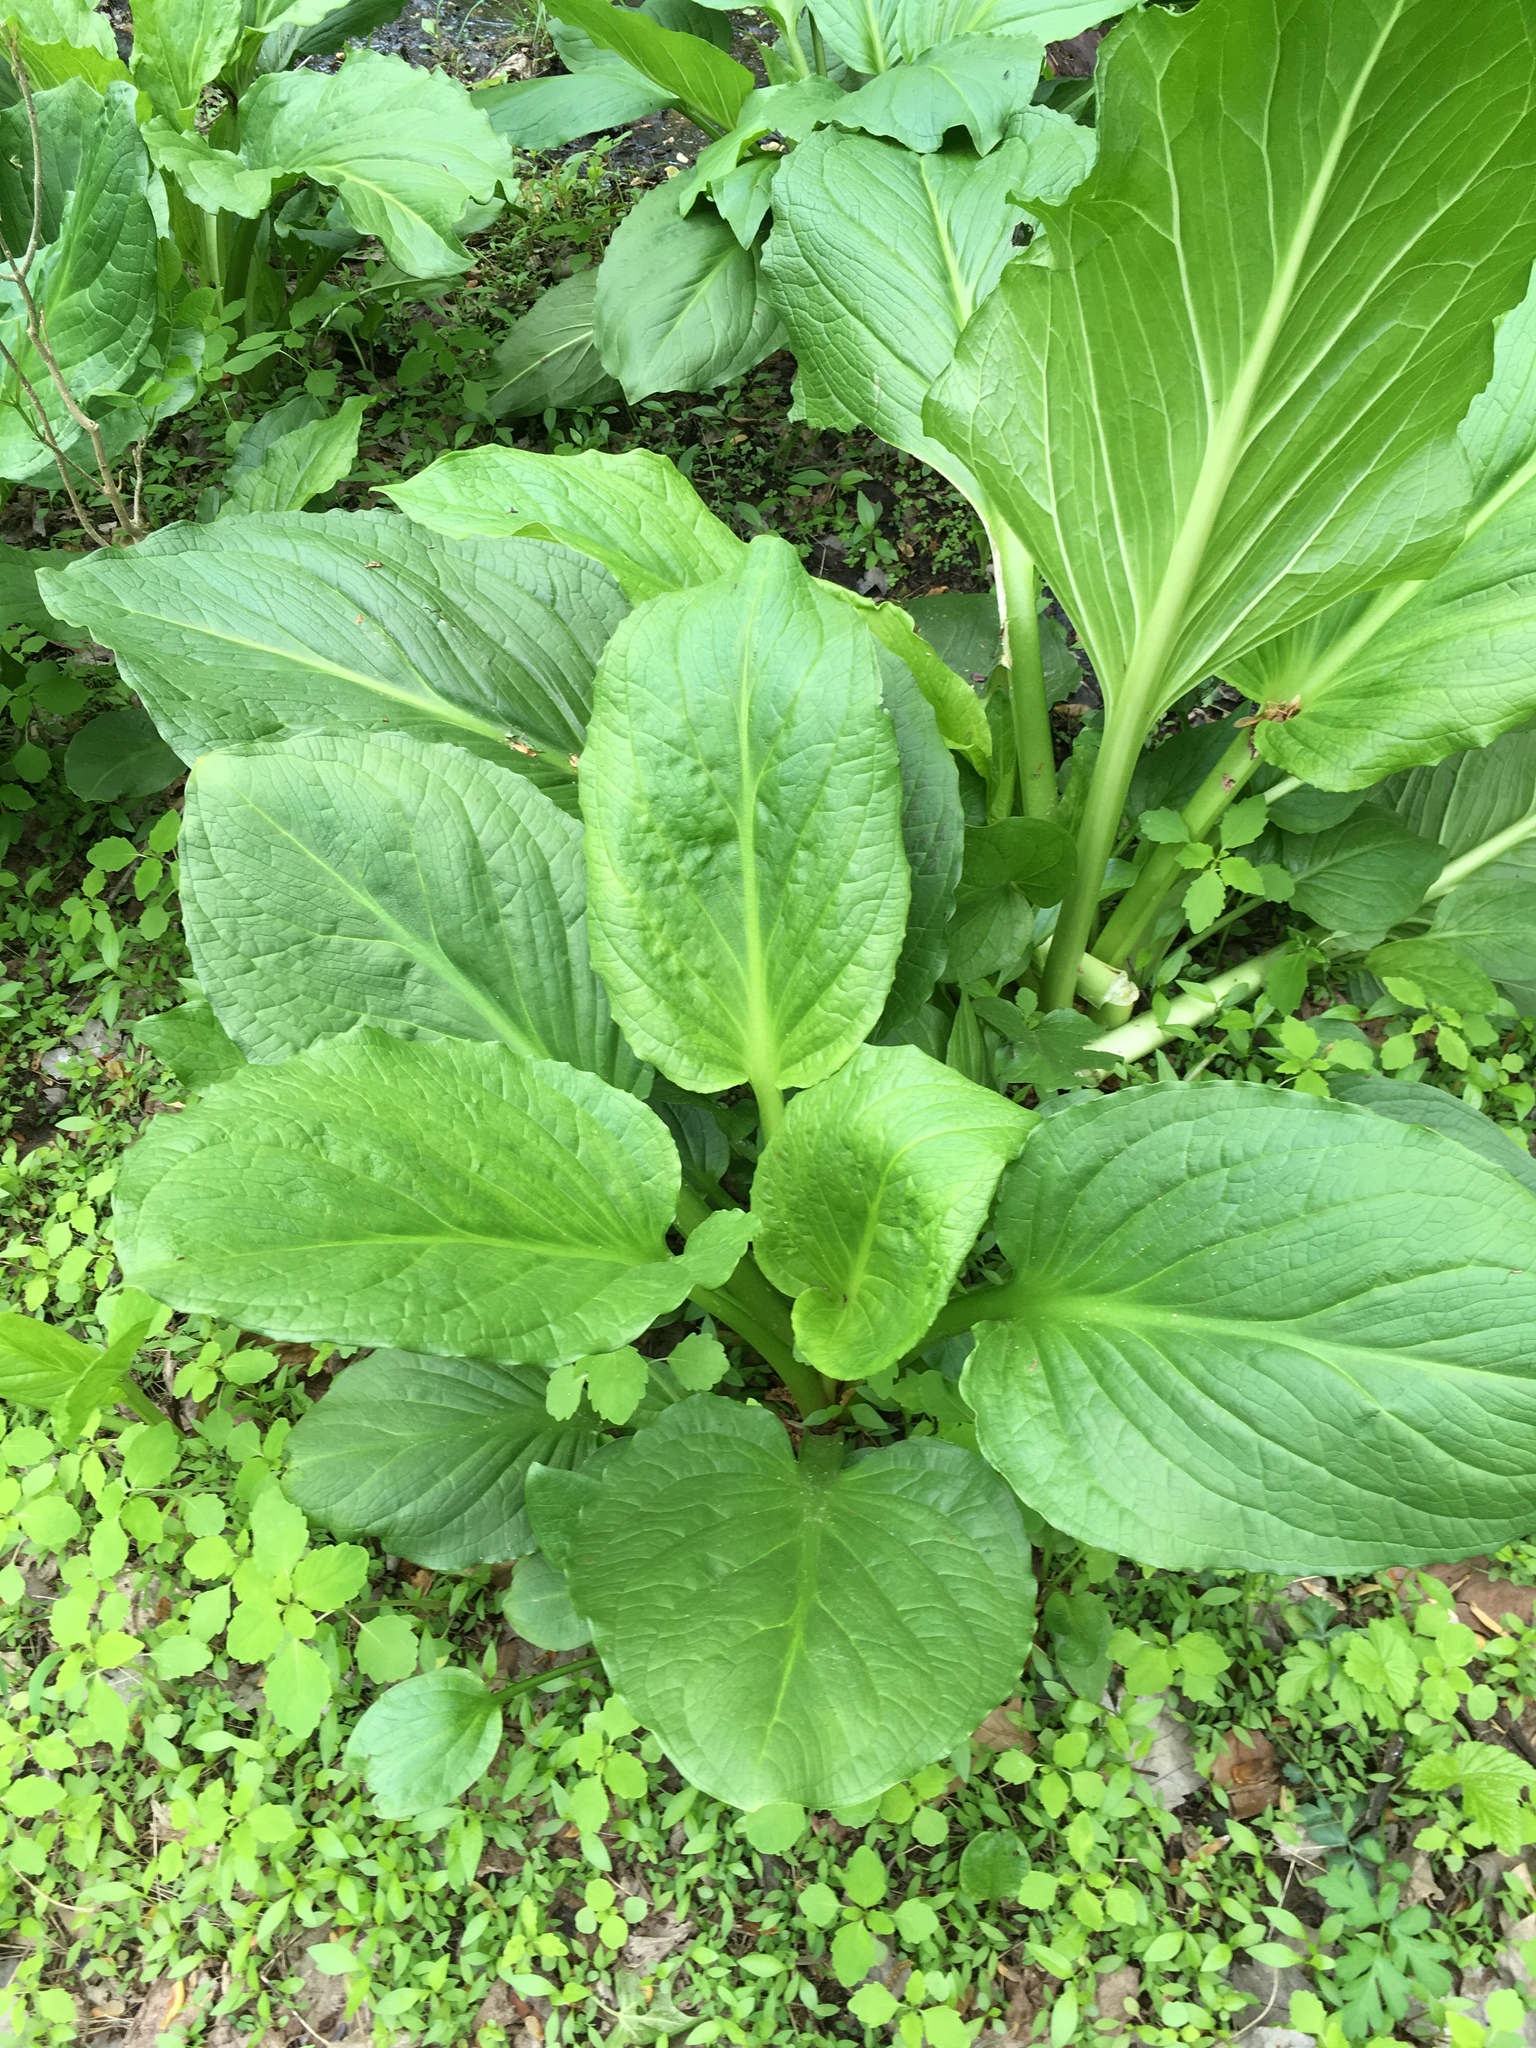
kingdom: Plantae
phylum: Tracheophyta
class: Liliopsida
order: Alismatales
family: Araceae
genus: Symplocarpus
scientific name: Symplocarpus foetidus
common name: Eastern skunk cabbage
